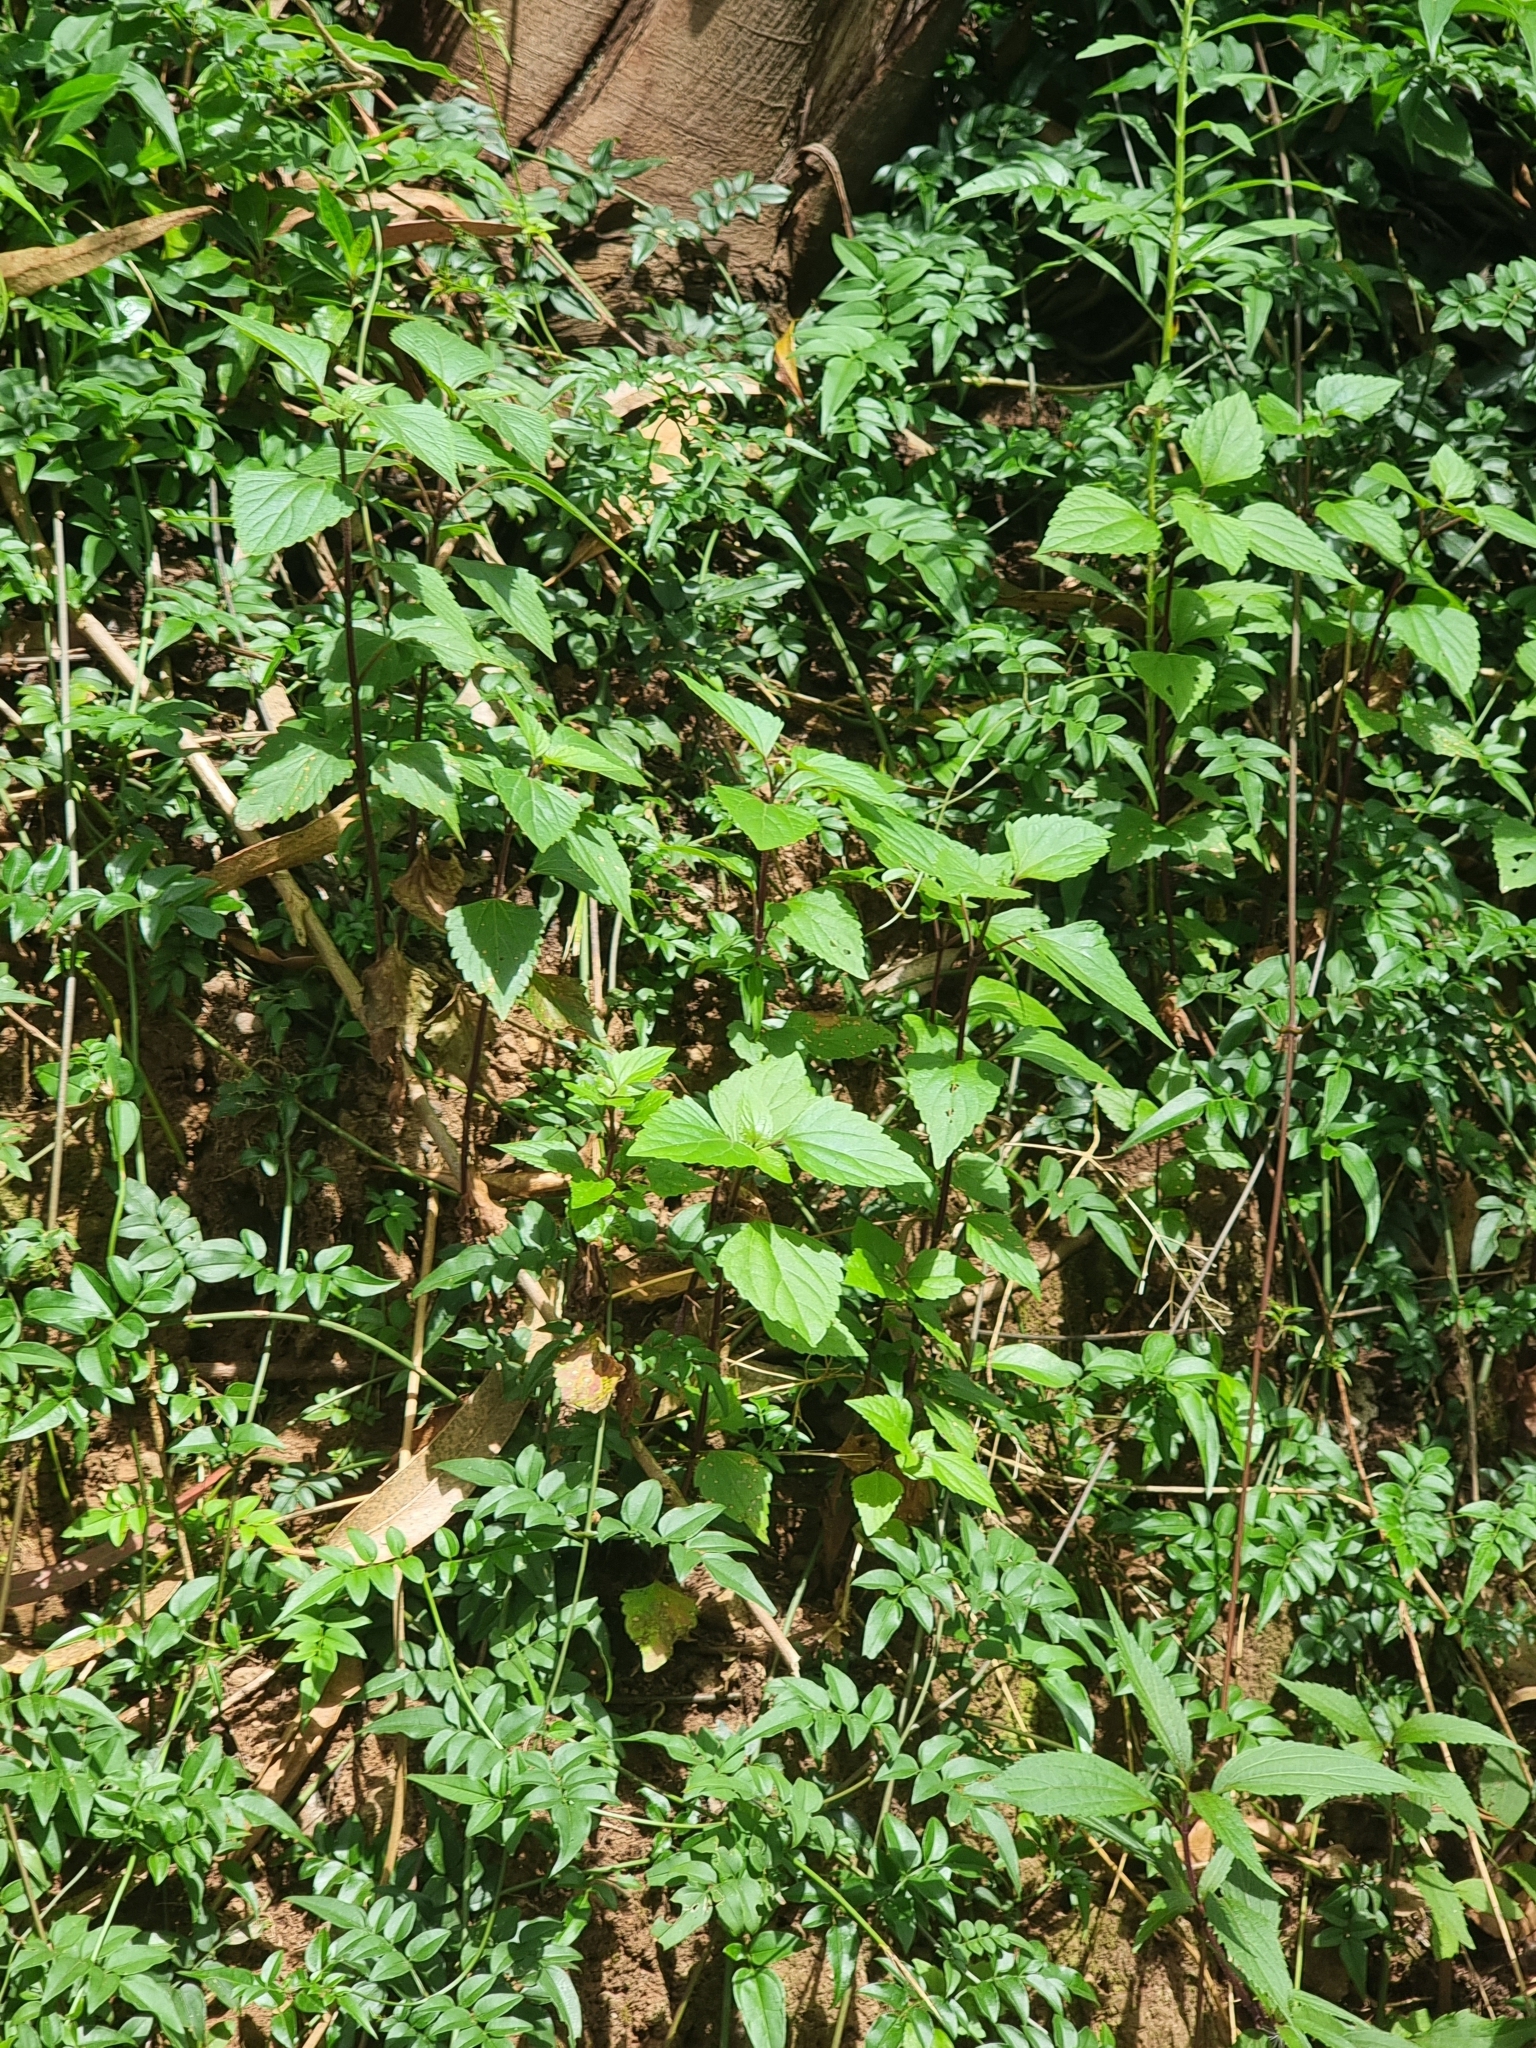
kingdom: Plantae
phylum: Tracheophyta
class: Magnoliopsida
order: Asterales
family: Asteraceae
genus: Ageratina
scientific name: Ageratina adenophora
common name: Sticky snakeroot
